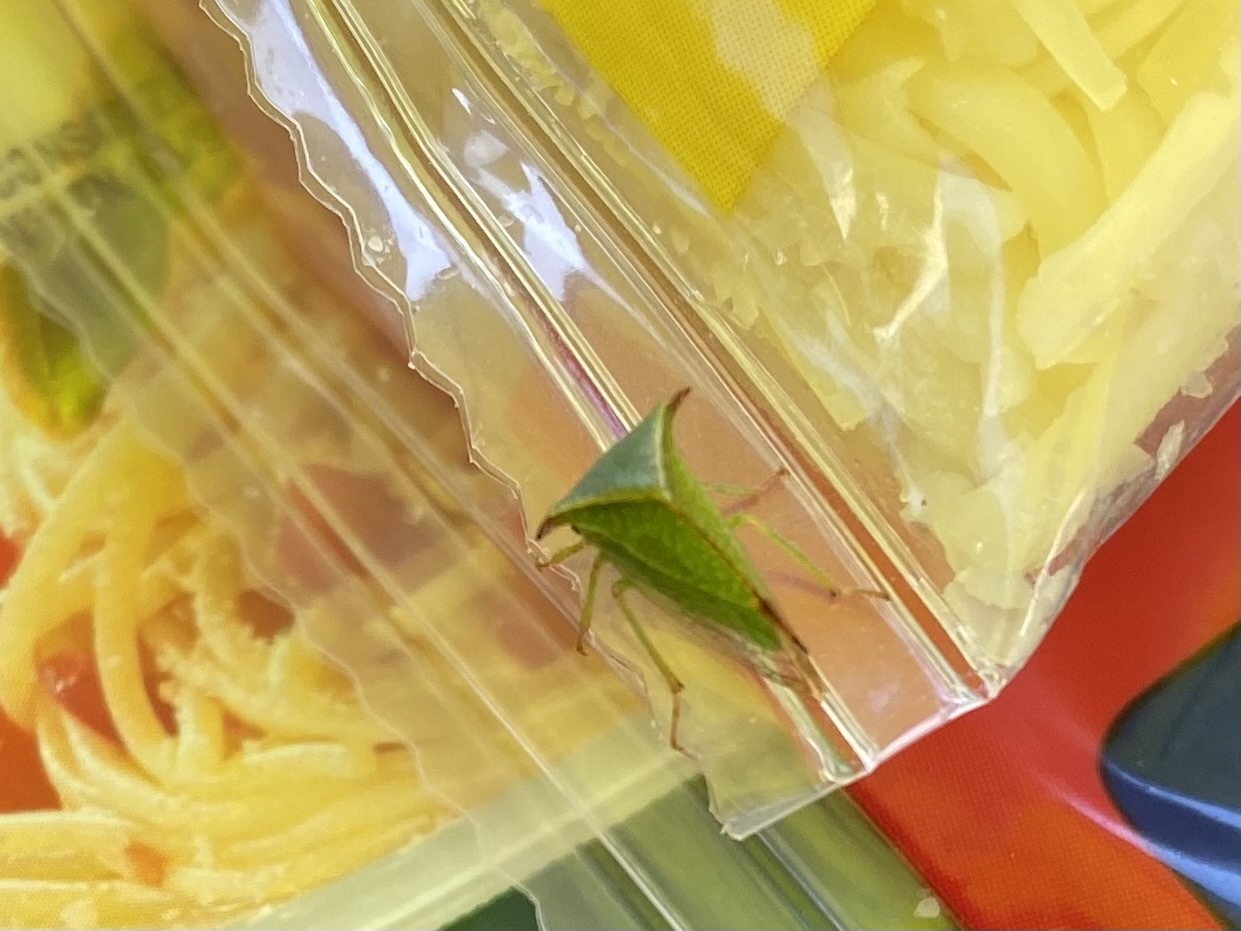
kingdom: Animalia
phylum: Arthropoda
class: Insecta
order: Hemiptera
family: Membracidae
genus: Stictocephala
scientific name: Stictocephala bisonia
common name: American buffalo treehopper
